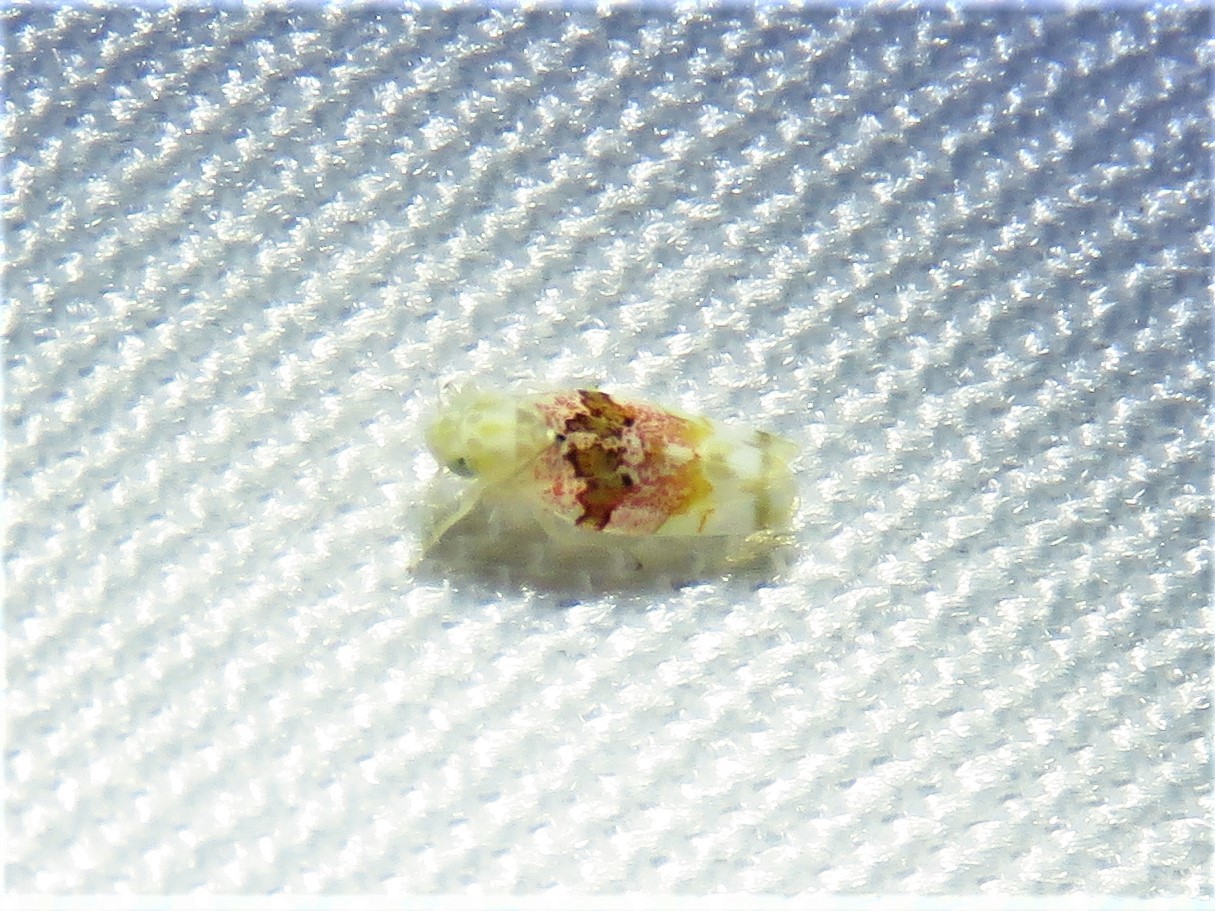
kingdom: Animalia
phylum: Arthropoda
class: Insecta
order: Hemiptera
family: Cicadellidae
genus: Hymetta
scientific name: Hymetta anthisma
